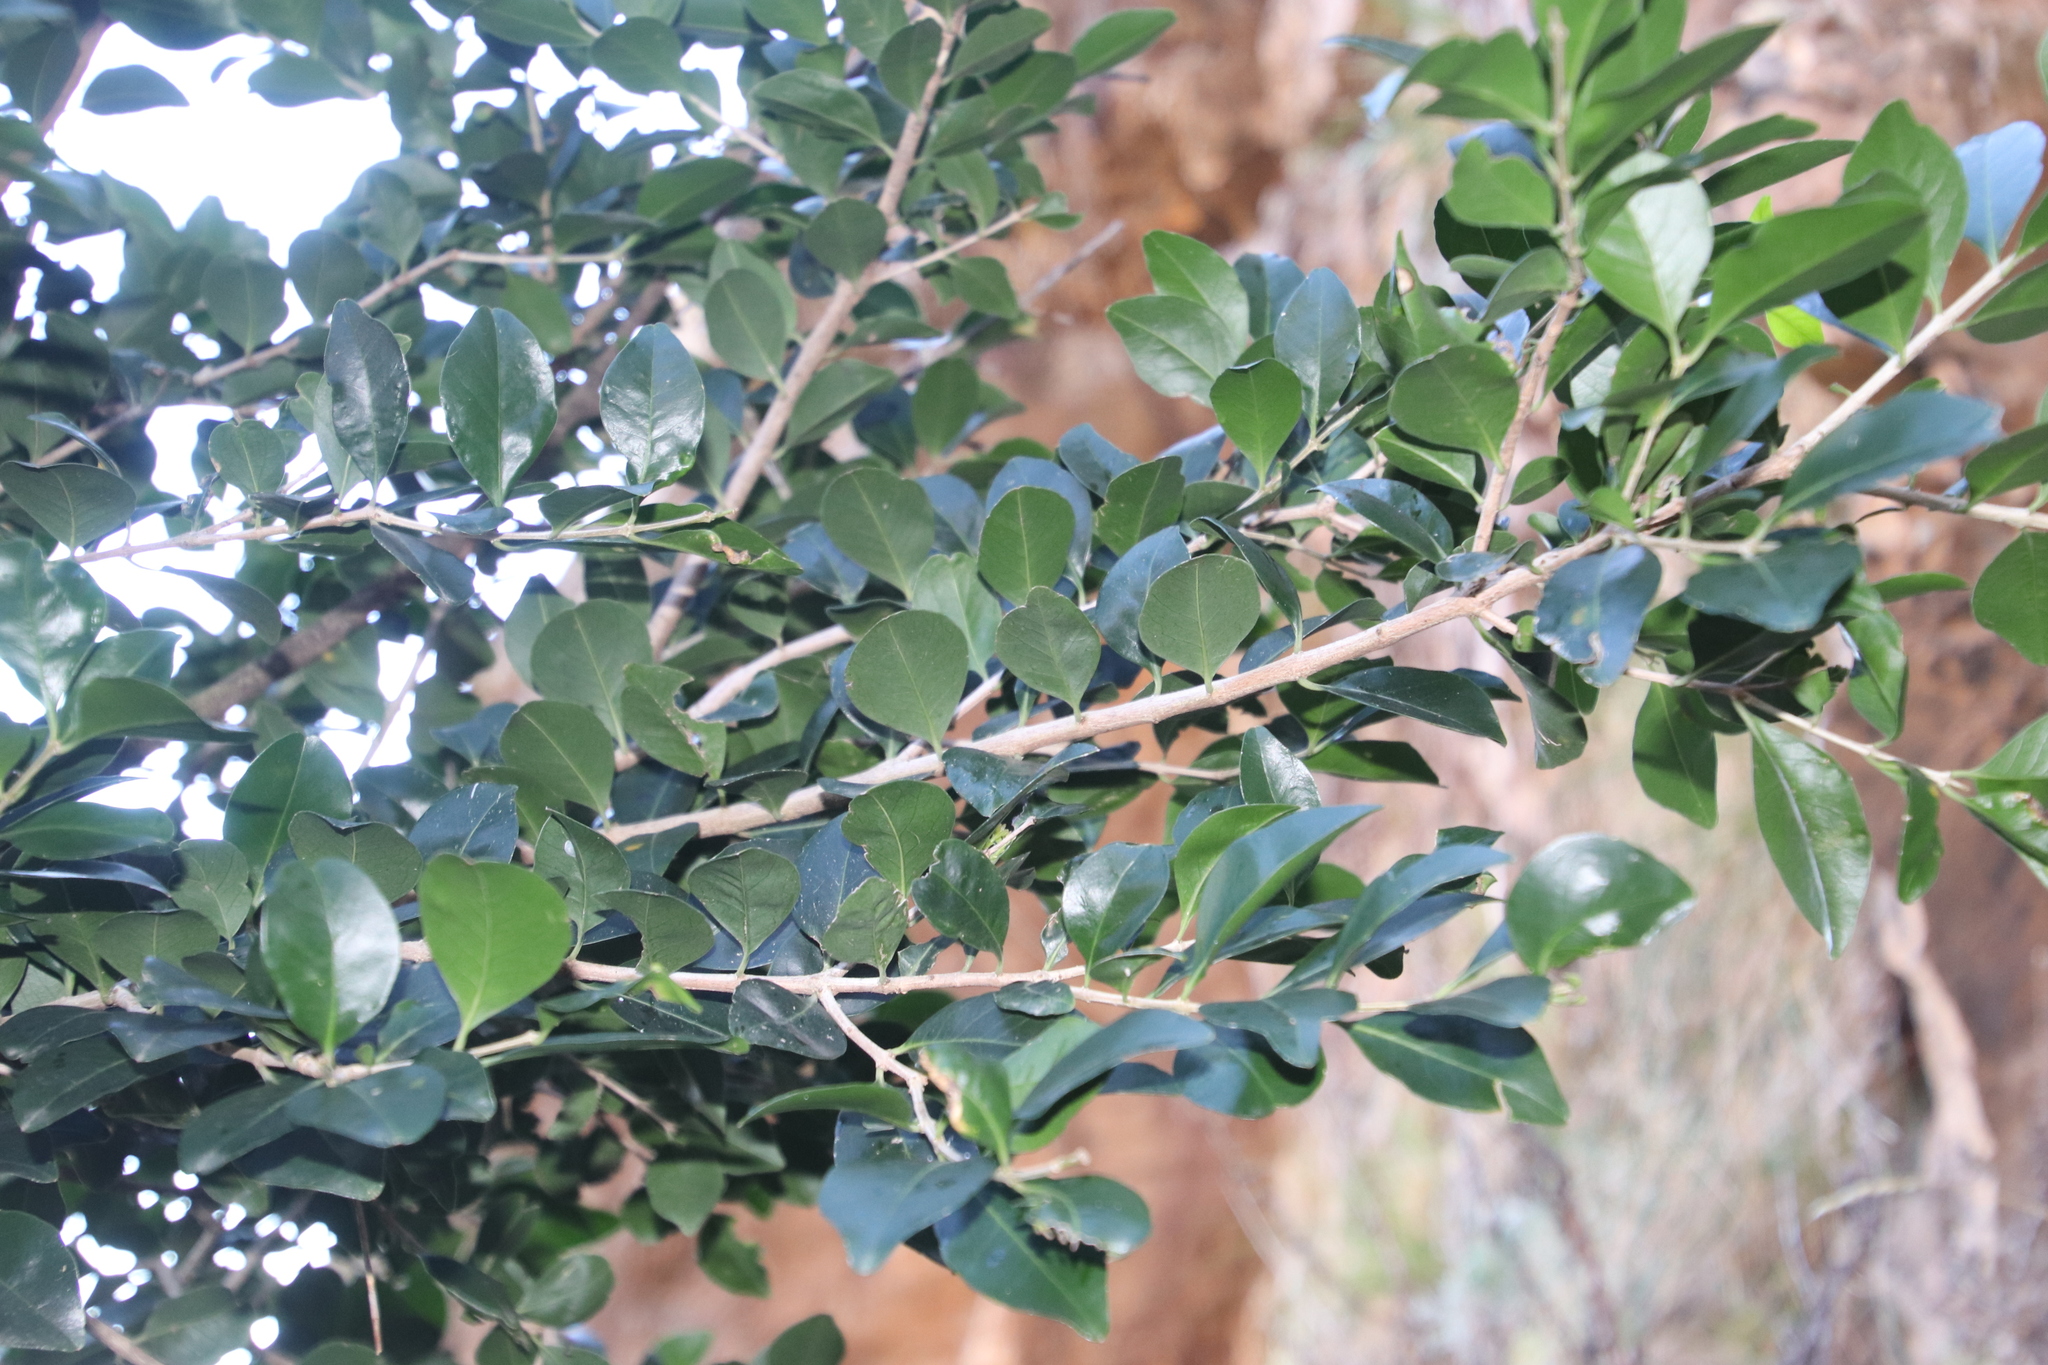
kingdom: Plantae
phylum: Tracheophyta
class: Magnoliopsida
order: Myrtales
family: Penaeaceae
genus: Olinia
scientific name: Olinia ventosa
